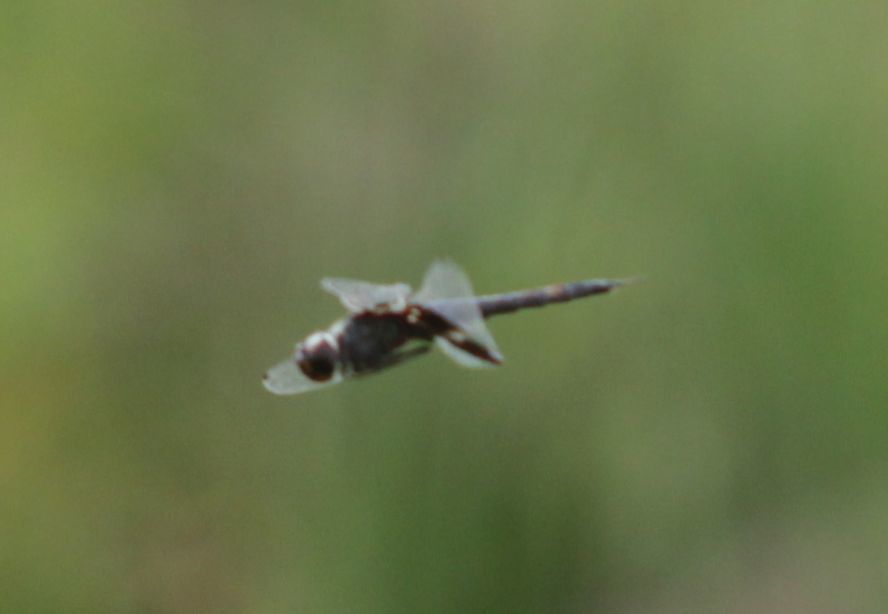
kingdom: Animalia
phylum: Arthropoda
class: Insecta
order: Odonata
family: Libellulidae
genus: Tramea
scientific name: Tramea lacerata
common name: Black saddlebags
